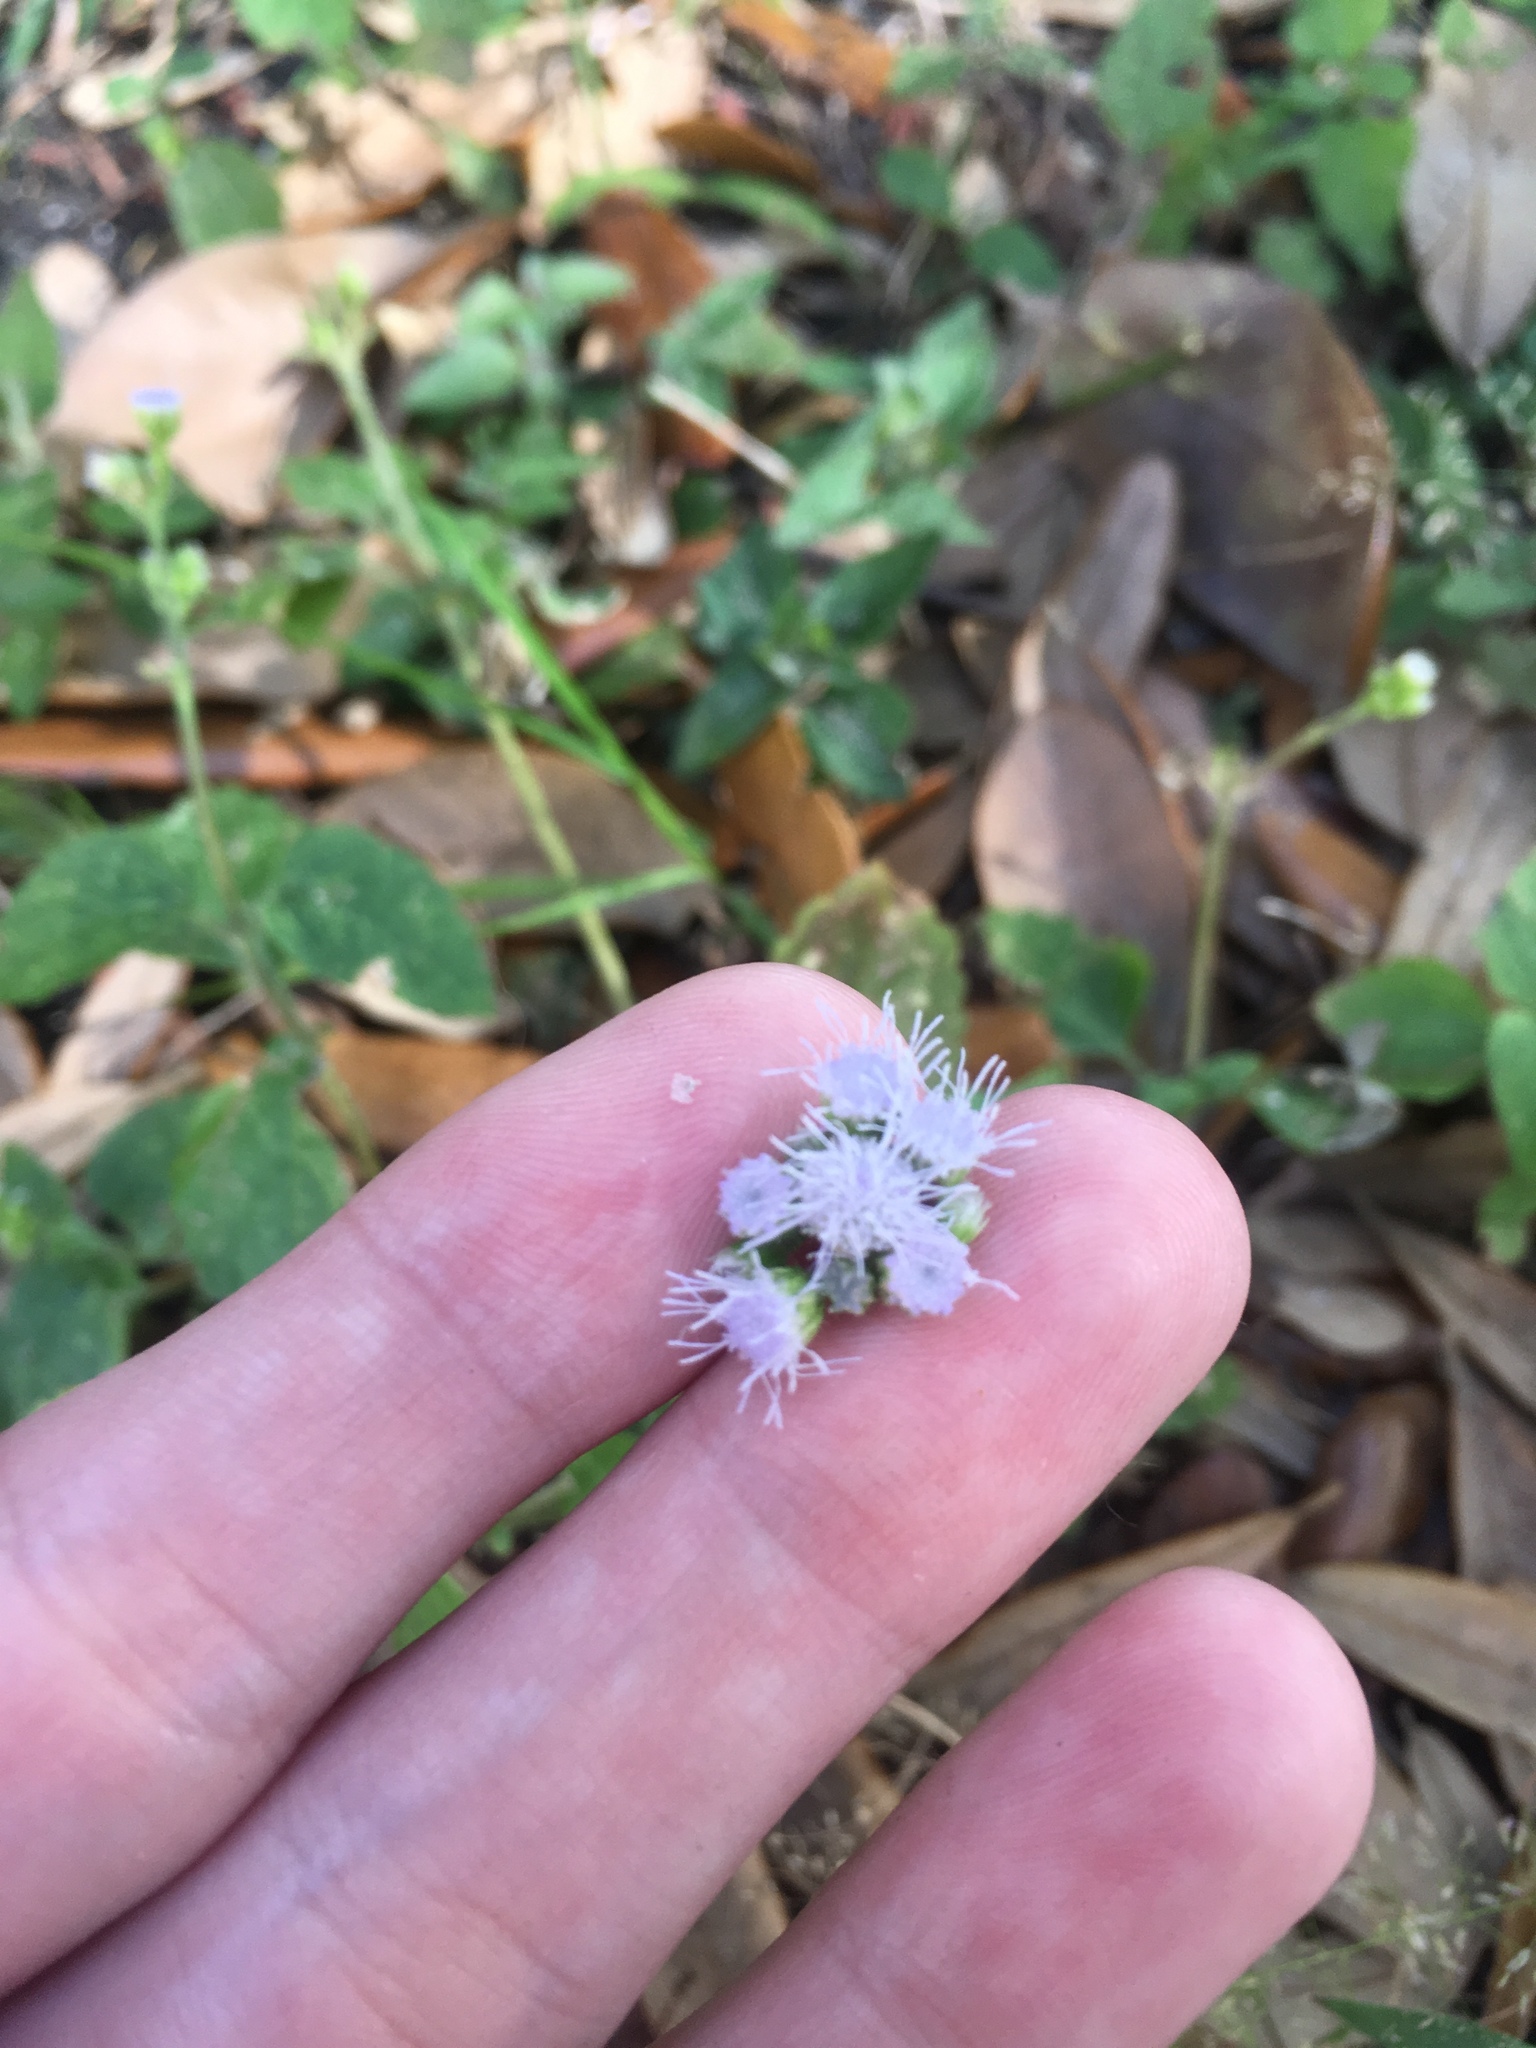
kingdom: Plantae
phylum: Tracheophyta
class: Magnoliopsida
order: Asterales
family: Asteraceae
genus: Ageratum
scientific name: Ageratum houstonianum
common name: Bluemink
